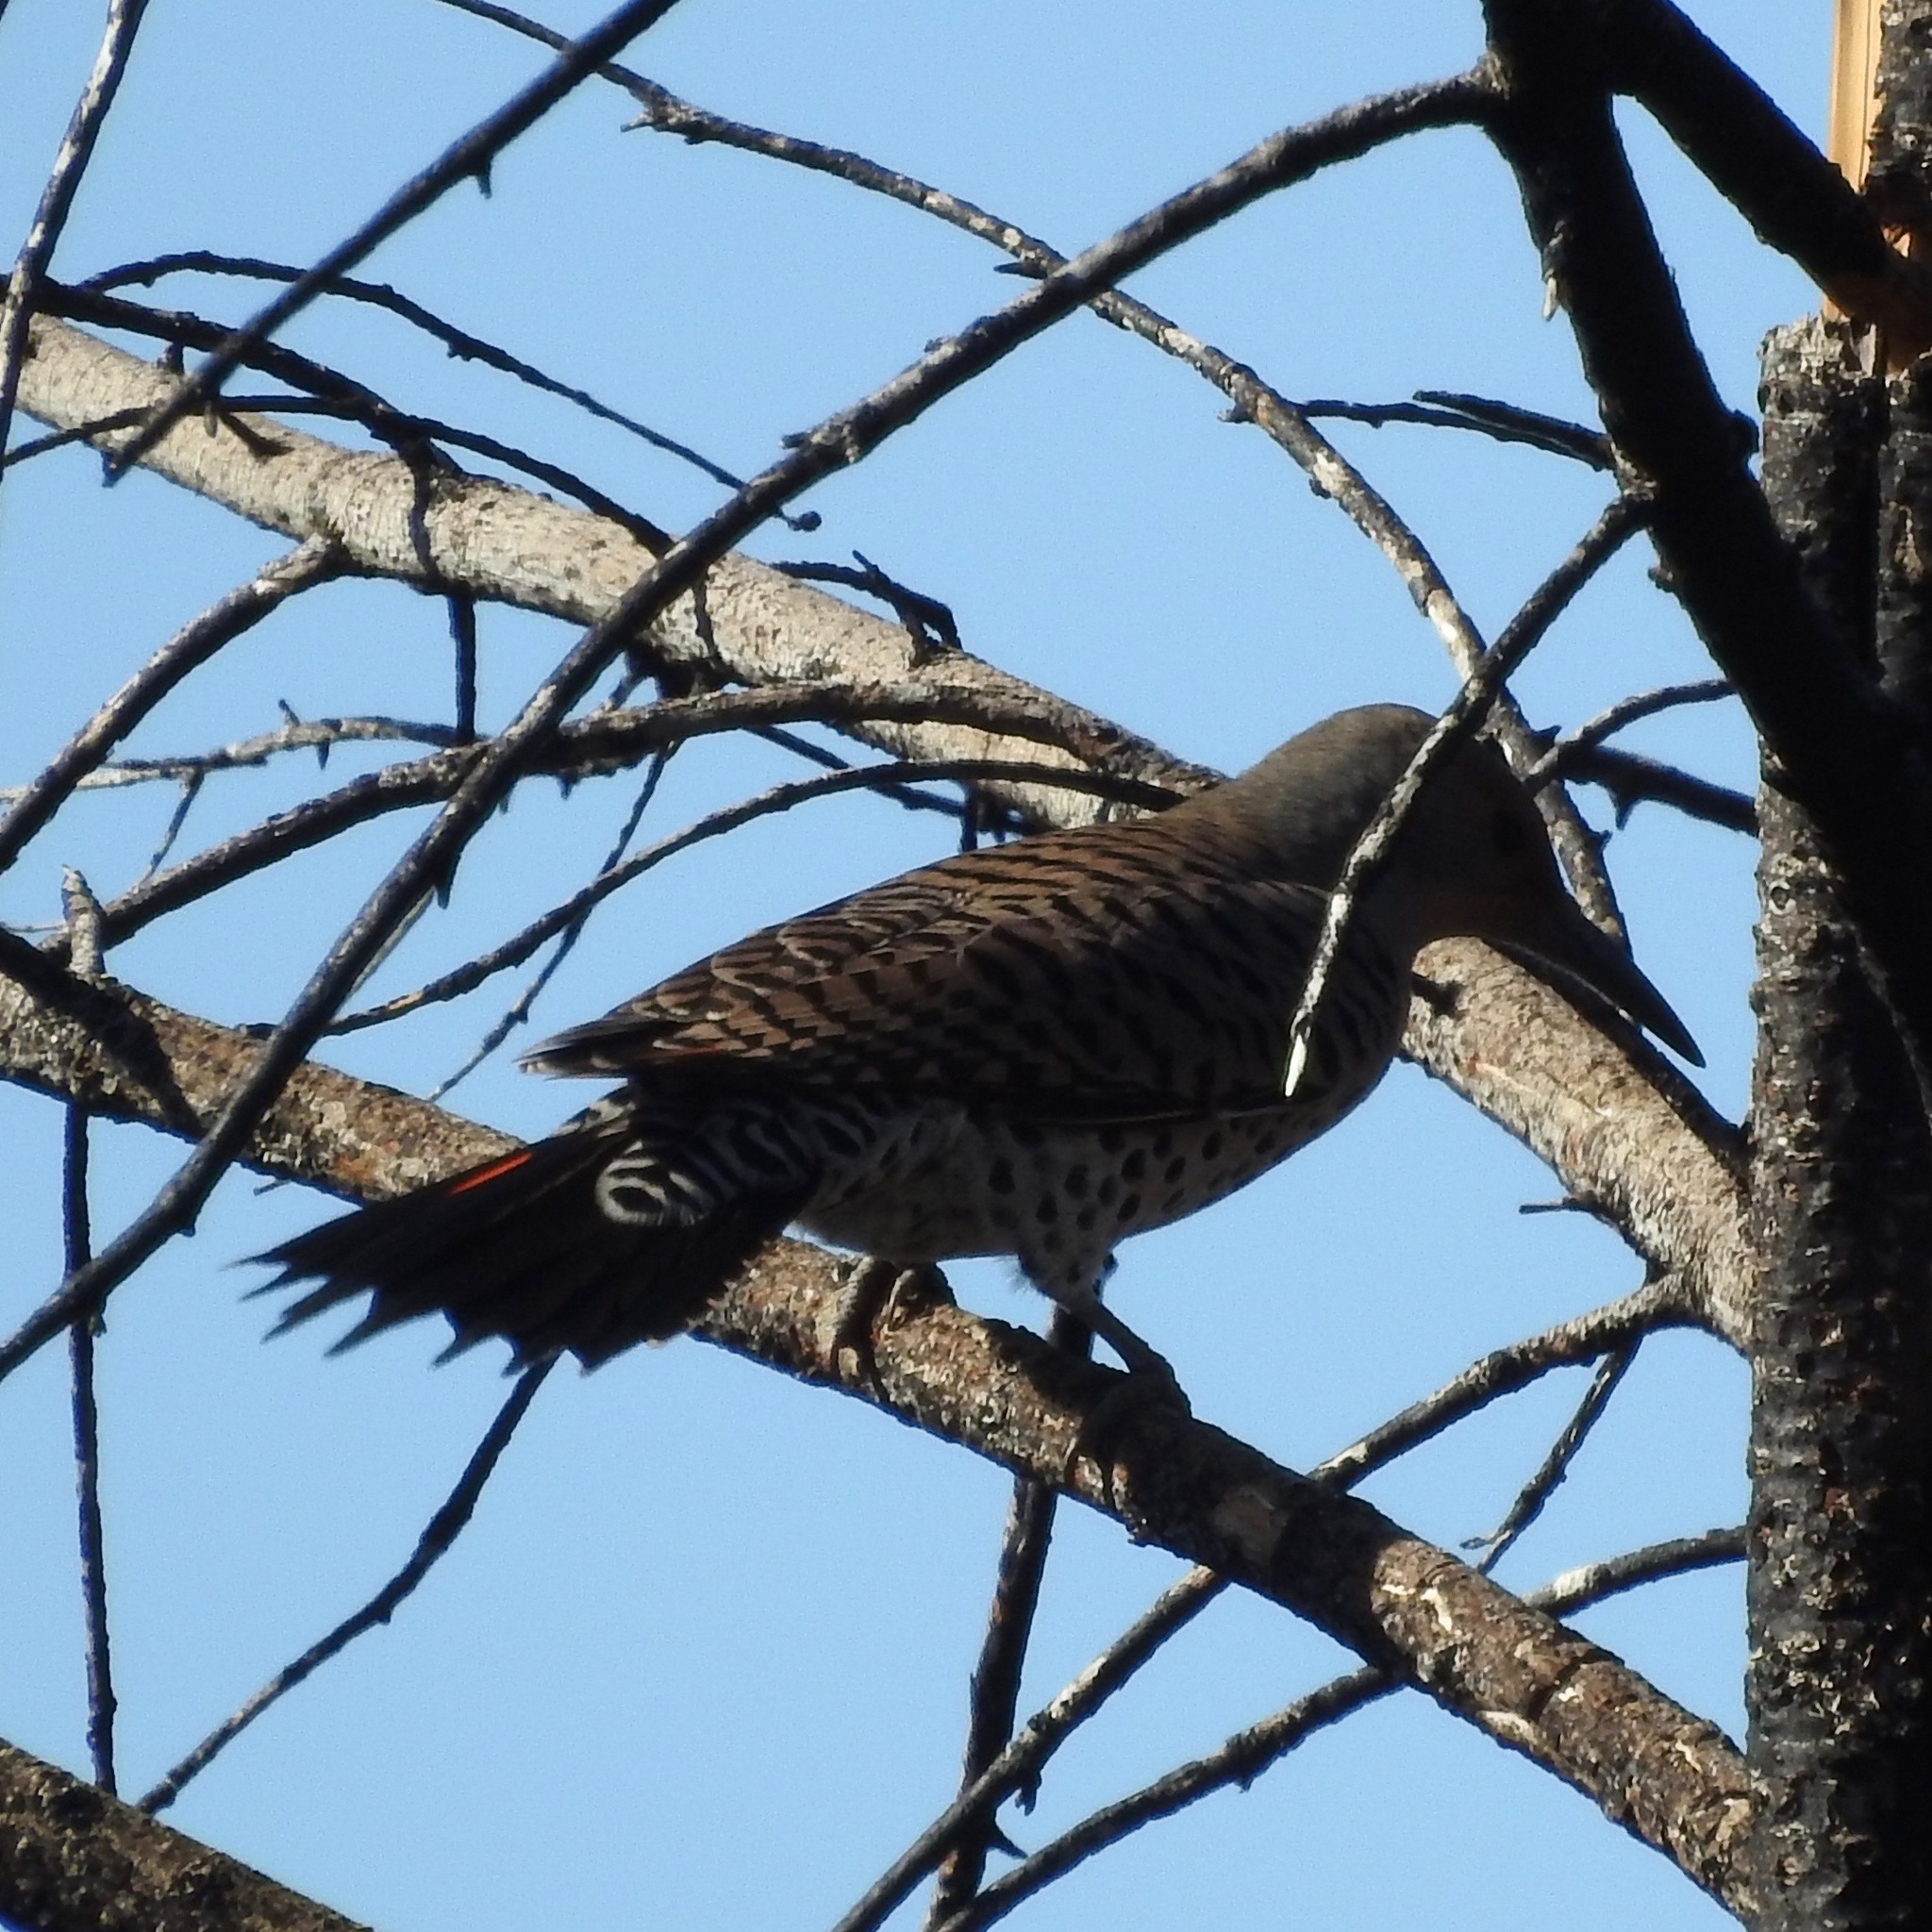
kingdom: Animalia
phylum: Chordata
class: Aves
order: Piciformes
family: Picidae
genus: Colaptes
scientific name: Colaptes auratus
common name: Northern flicker
